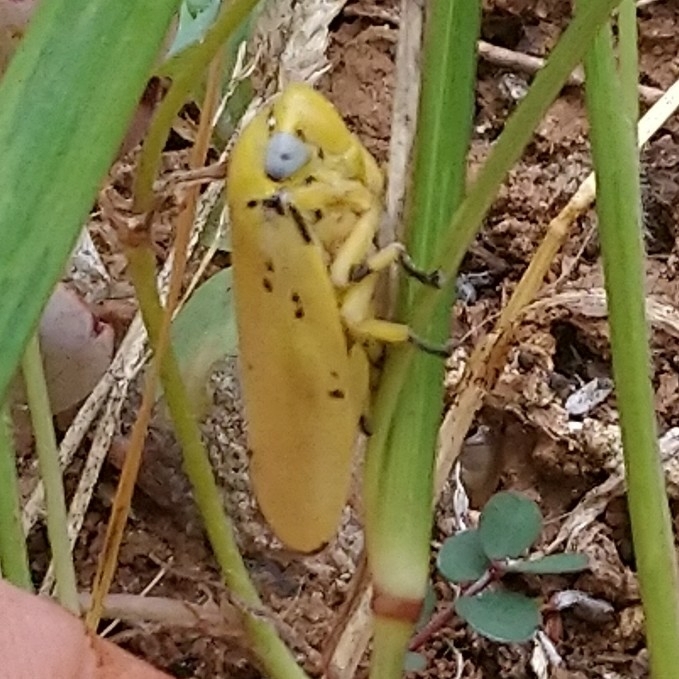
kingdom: Animalia
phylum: Arthropoda
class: Insecta
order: Hemiptera
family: Aphrophoridae
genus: Ptyelus
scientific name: Ptyelus flavescens
